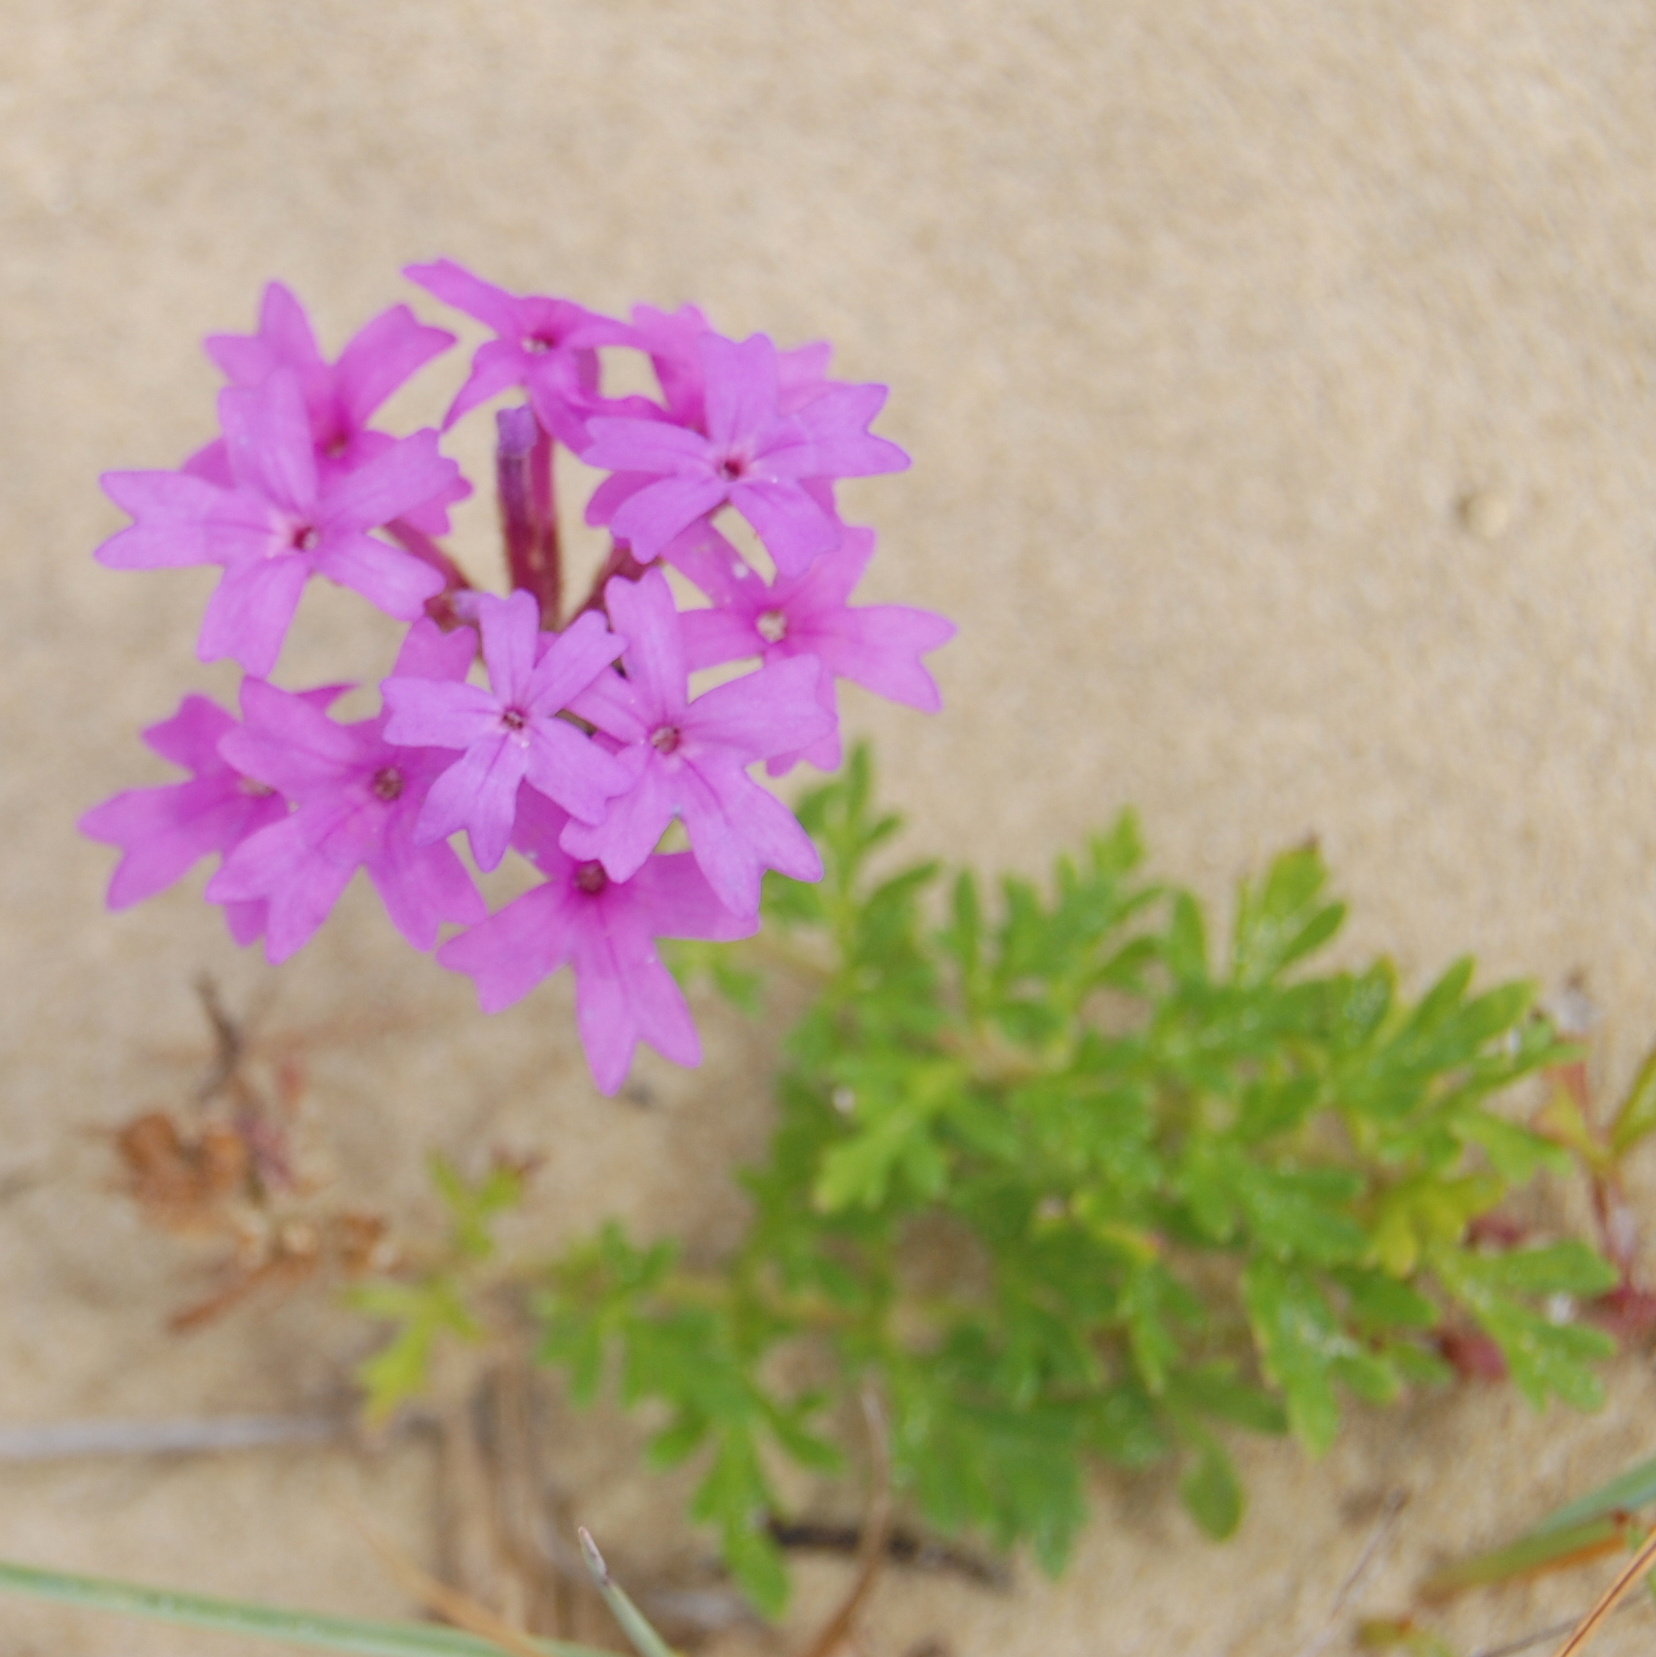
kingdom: Plantae
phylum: Tracheophyta
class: Magnoliopsida
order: Lamiales
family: Verbenaceae
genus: Verbena
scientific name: Verbena selloi
